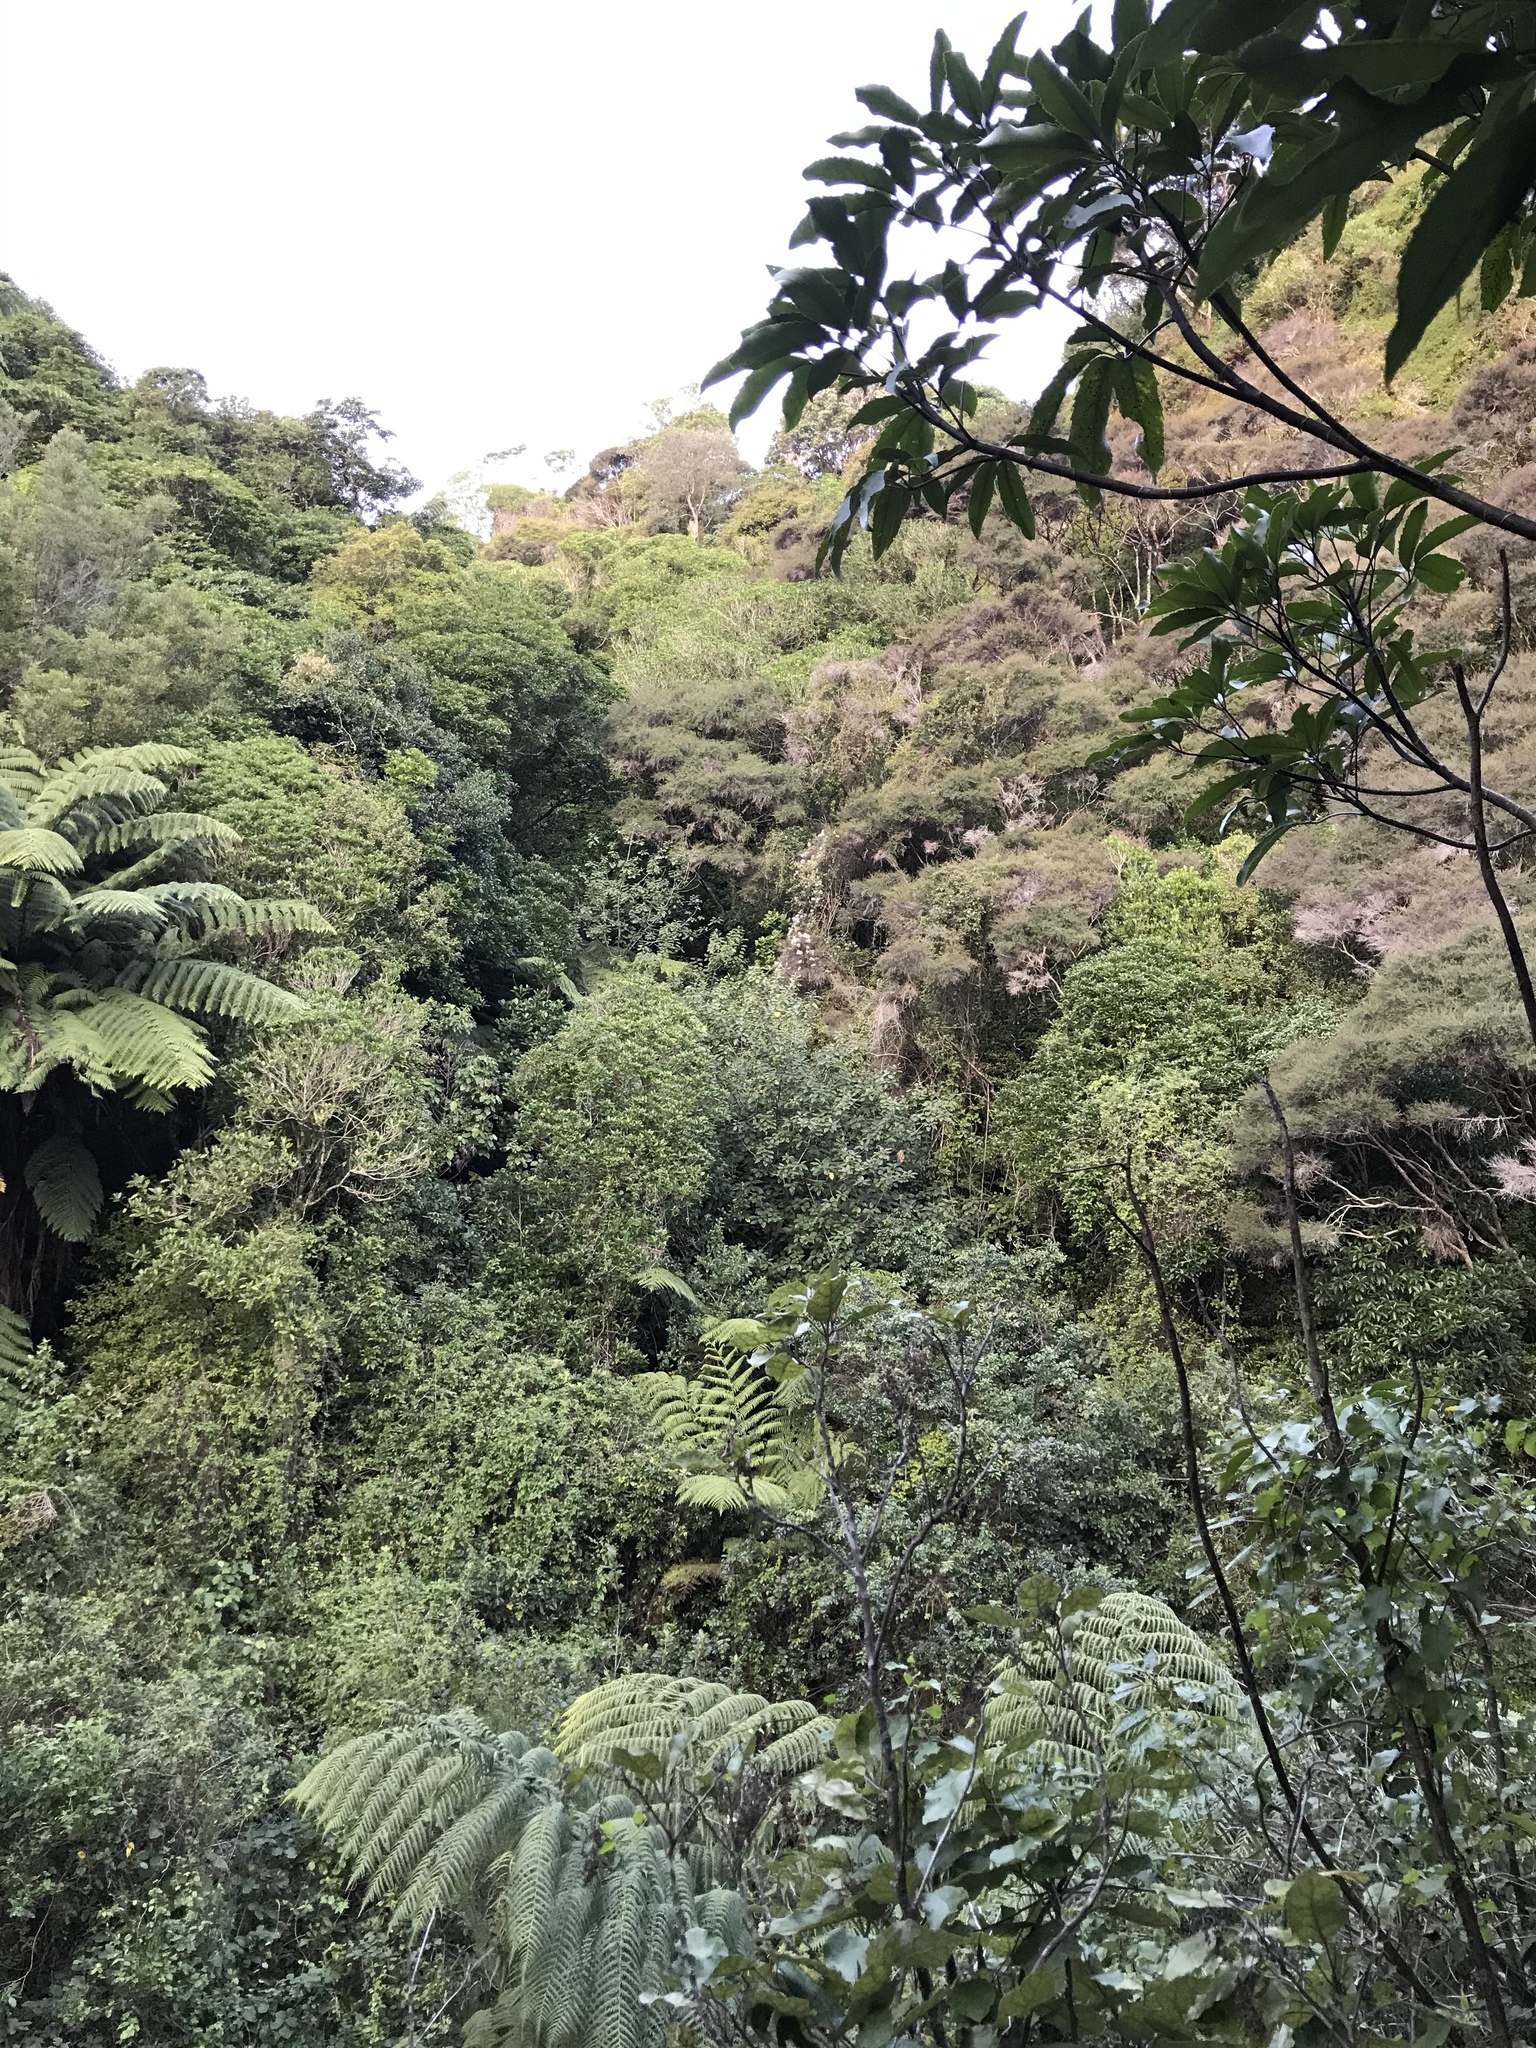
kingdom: Plantae
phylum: Tracheophyta
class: Magnoliopsida
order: Ranunculales
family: Ranunculaceae
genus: Clematis
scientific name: Clematis vitalba
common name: Evergreen clematis
